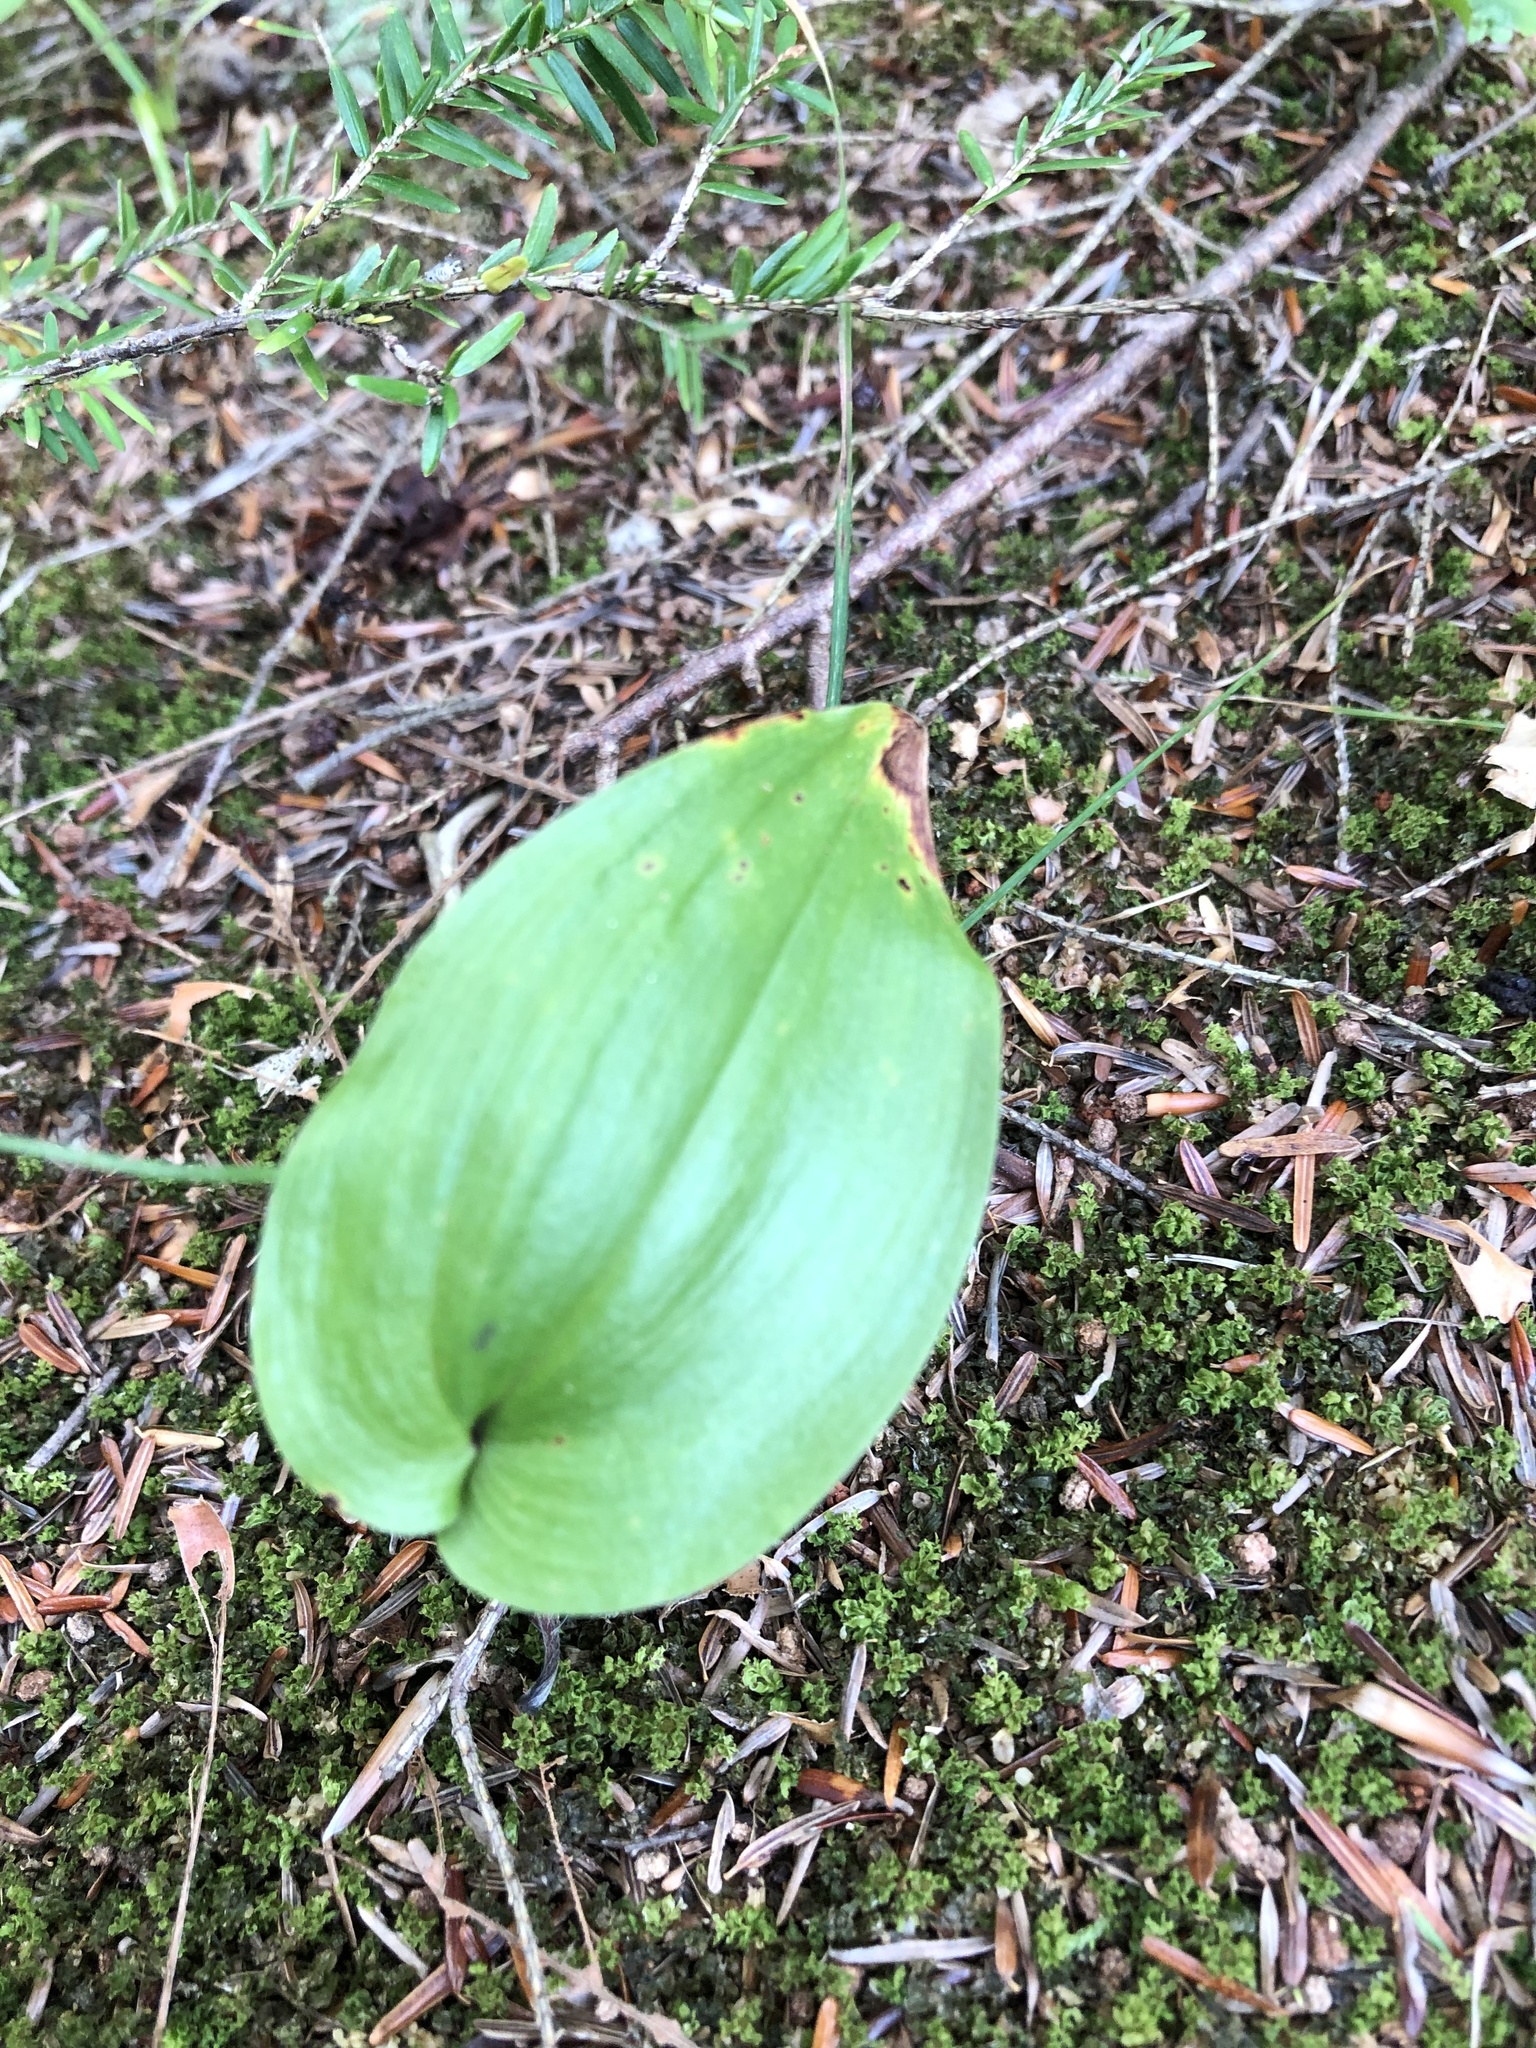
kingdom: Plantae
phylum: Tracheophyta
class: Liliopsida
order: Asparagales
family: Asparagaceae
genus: Maianthemum
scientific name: Maianthemum canadense
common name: False lily-of-the-valley
